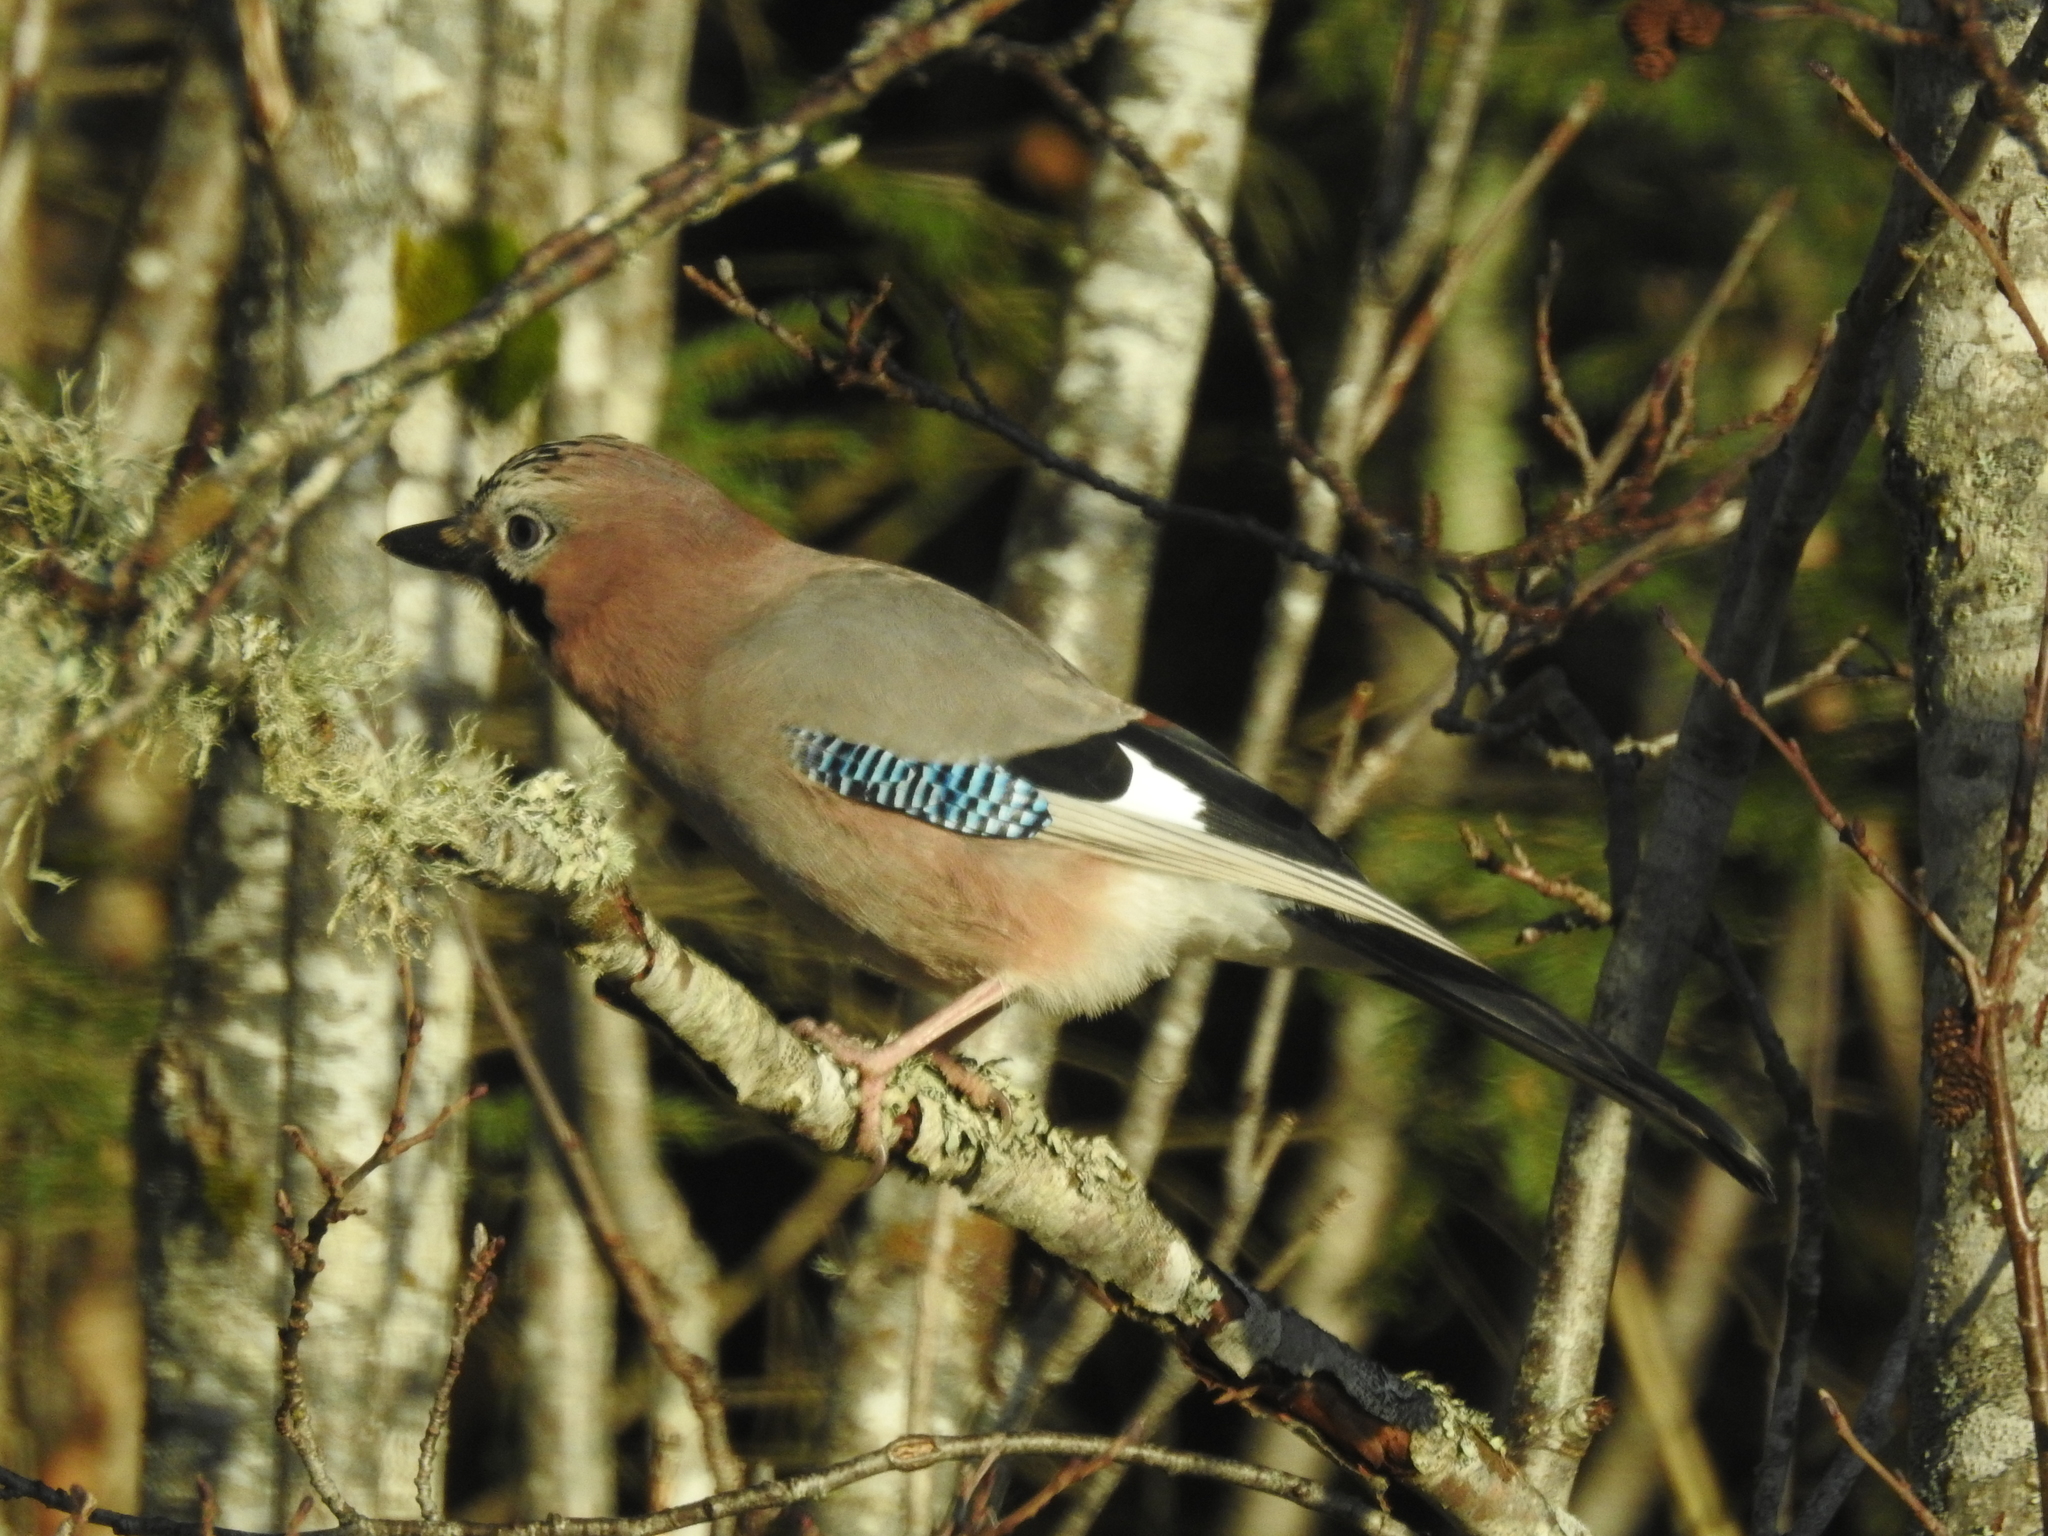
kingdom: Animalia
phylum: Chordata
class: Aves
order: Passeriformes
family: Corvidae
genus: Garrulus
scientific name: Garrulus glandarius
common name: Eurasian jay
